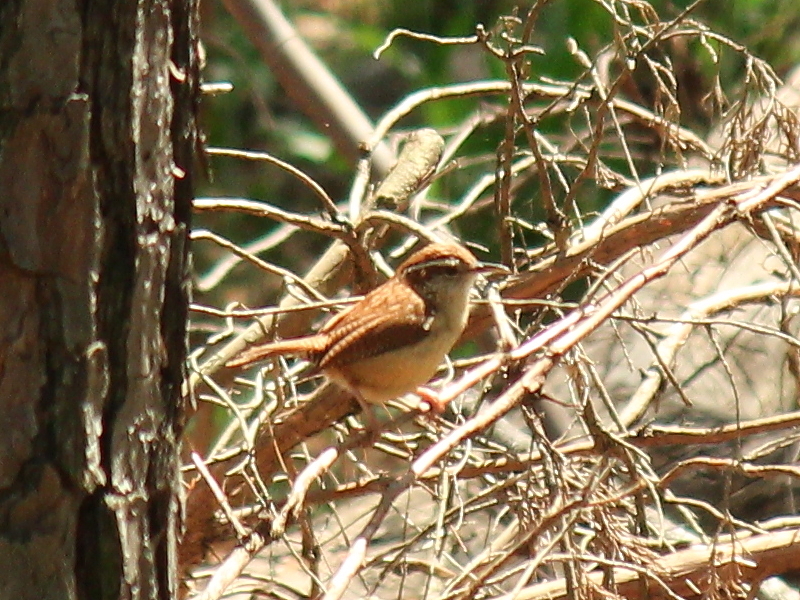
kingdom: Animalia
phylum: Chordata
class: Aves
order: Passeriformes
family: Troglodytidae
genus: Thryothorus
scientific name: Thryothorus ludovicianus
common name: Carolina wren
